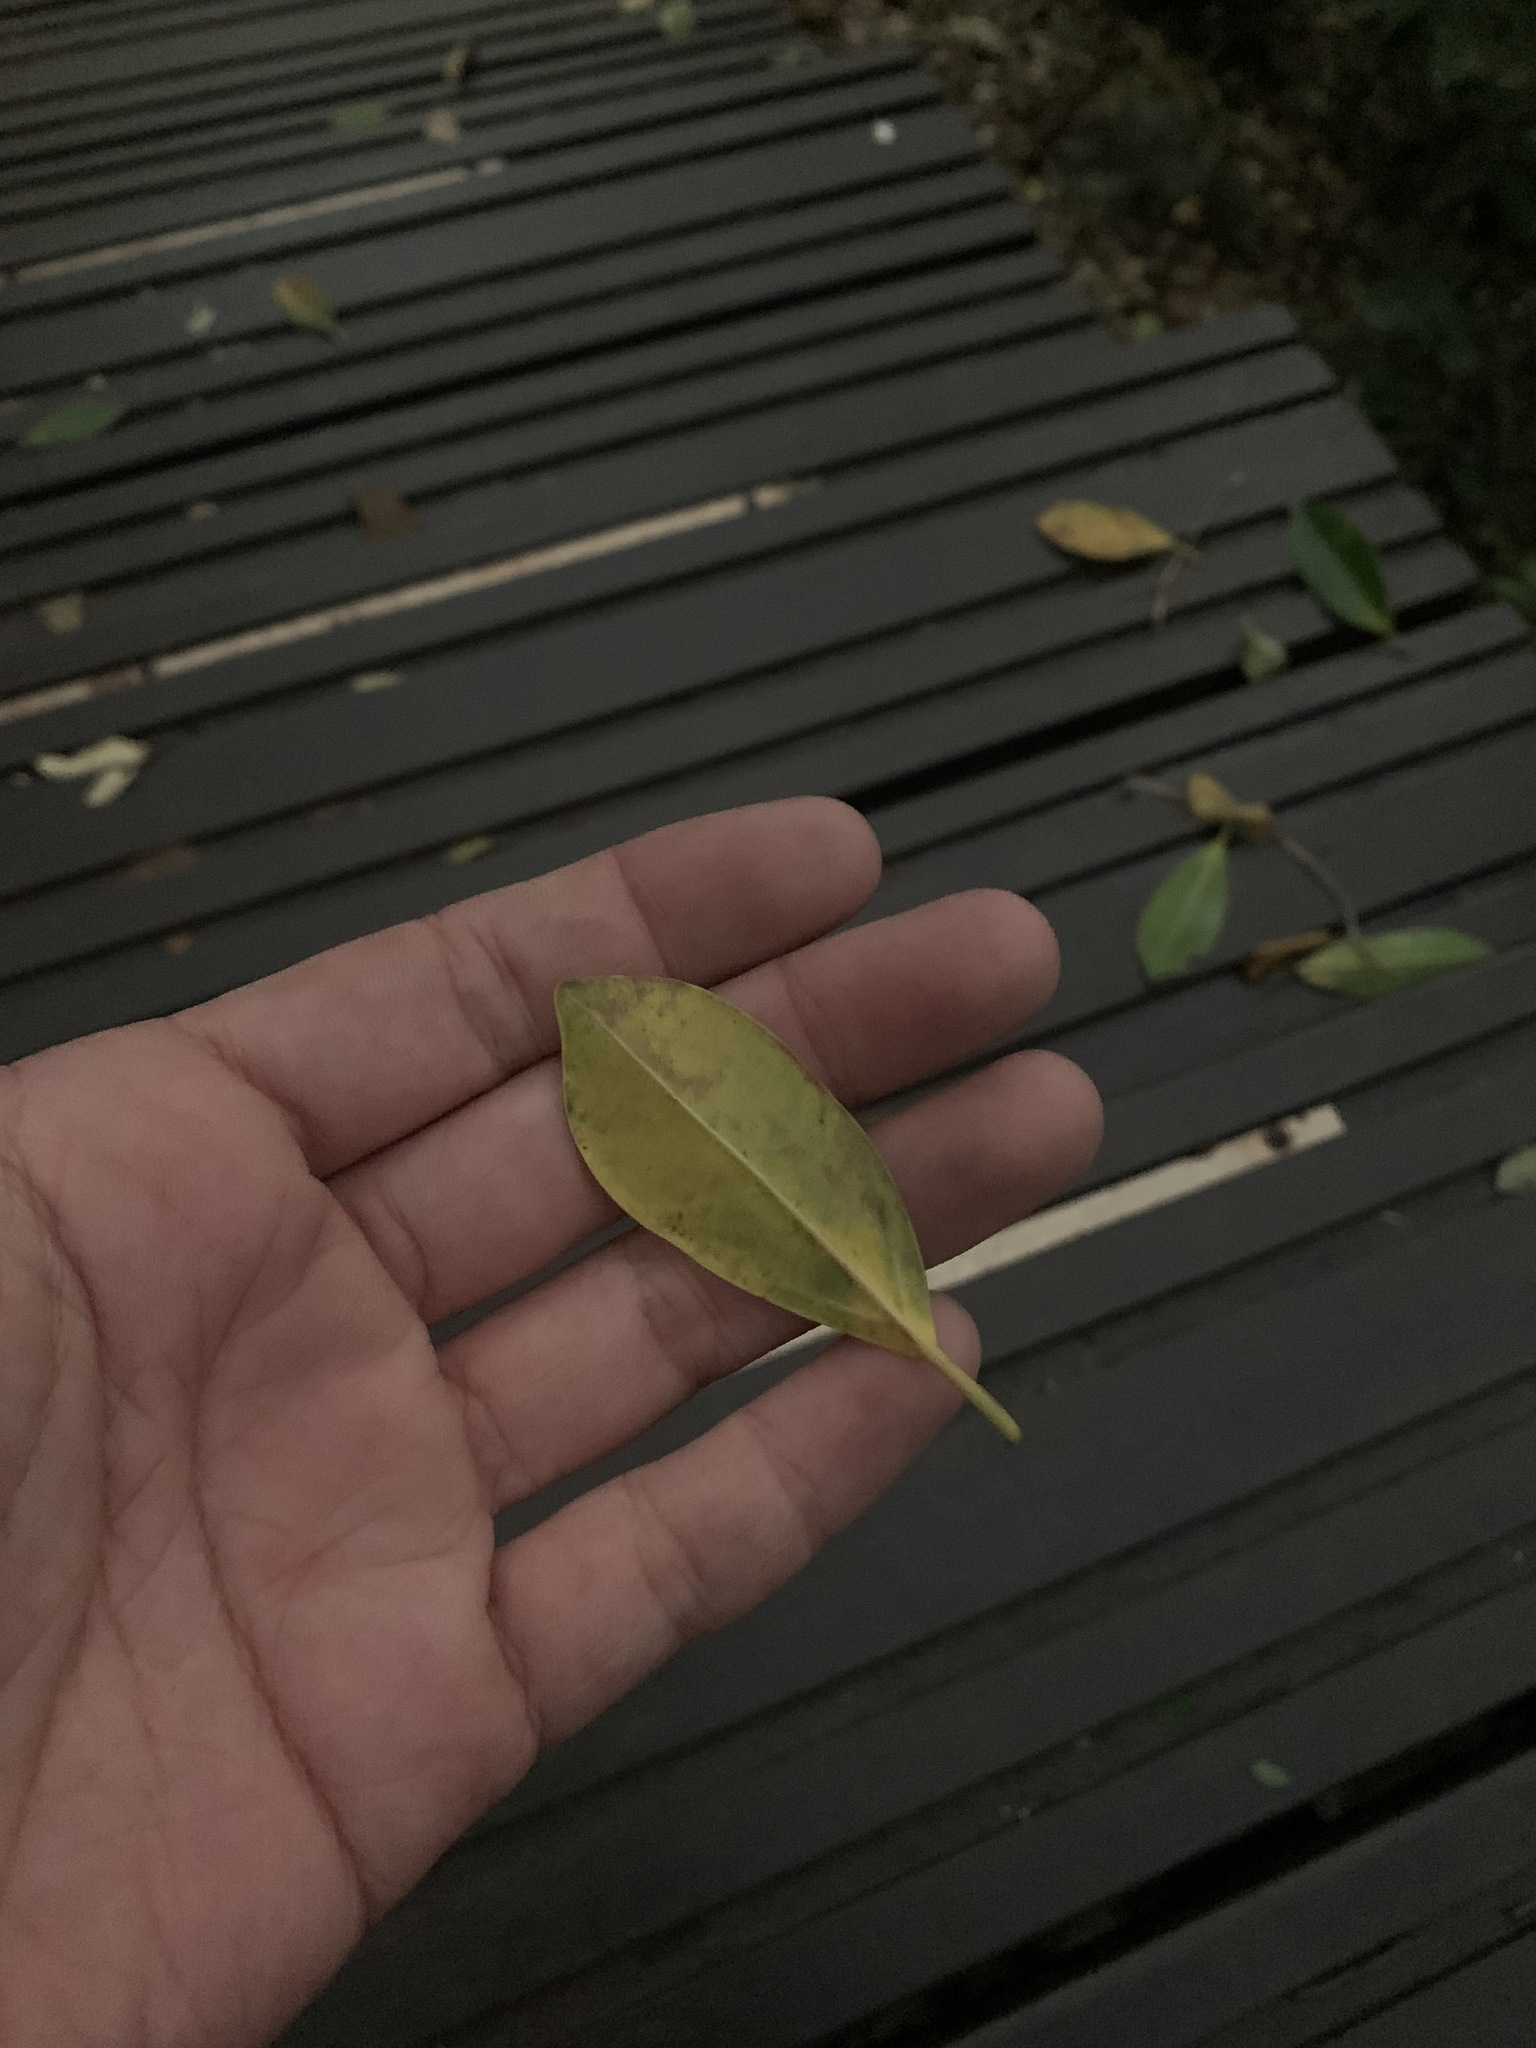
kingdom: Plantae
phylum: Tracheophyta
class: Magnoliopsida
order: Rosales
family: Moraceae
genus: Ficus
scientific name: Ficus microcarpa
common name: Chinese banyan
